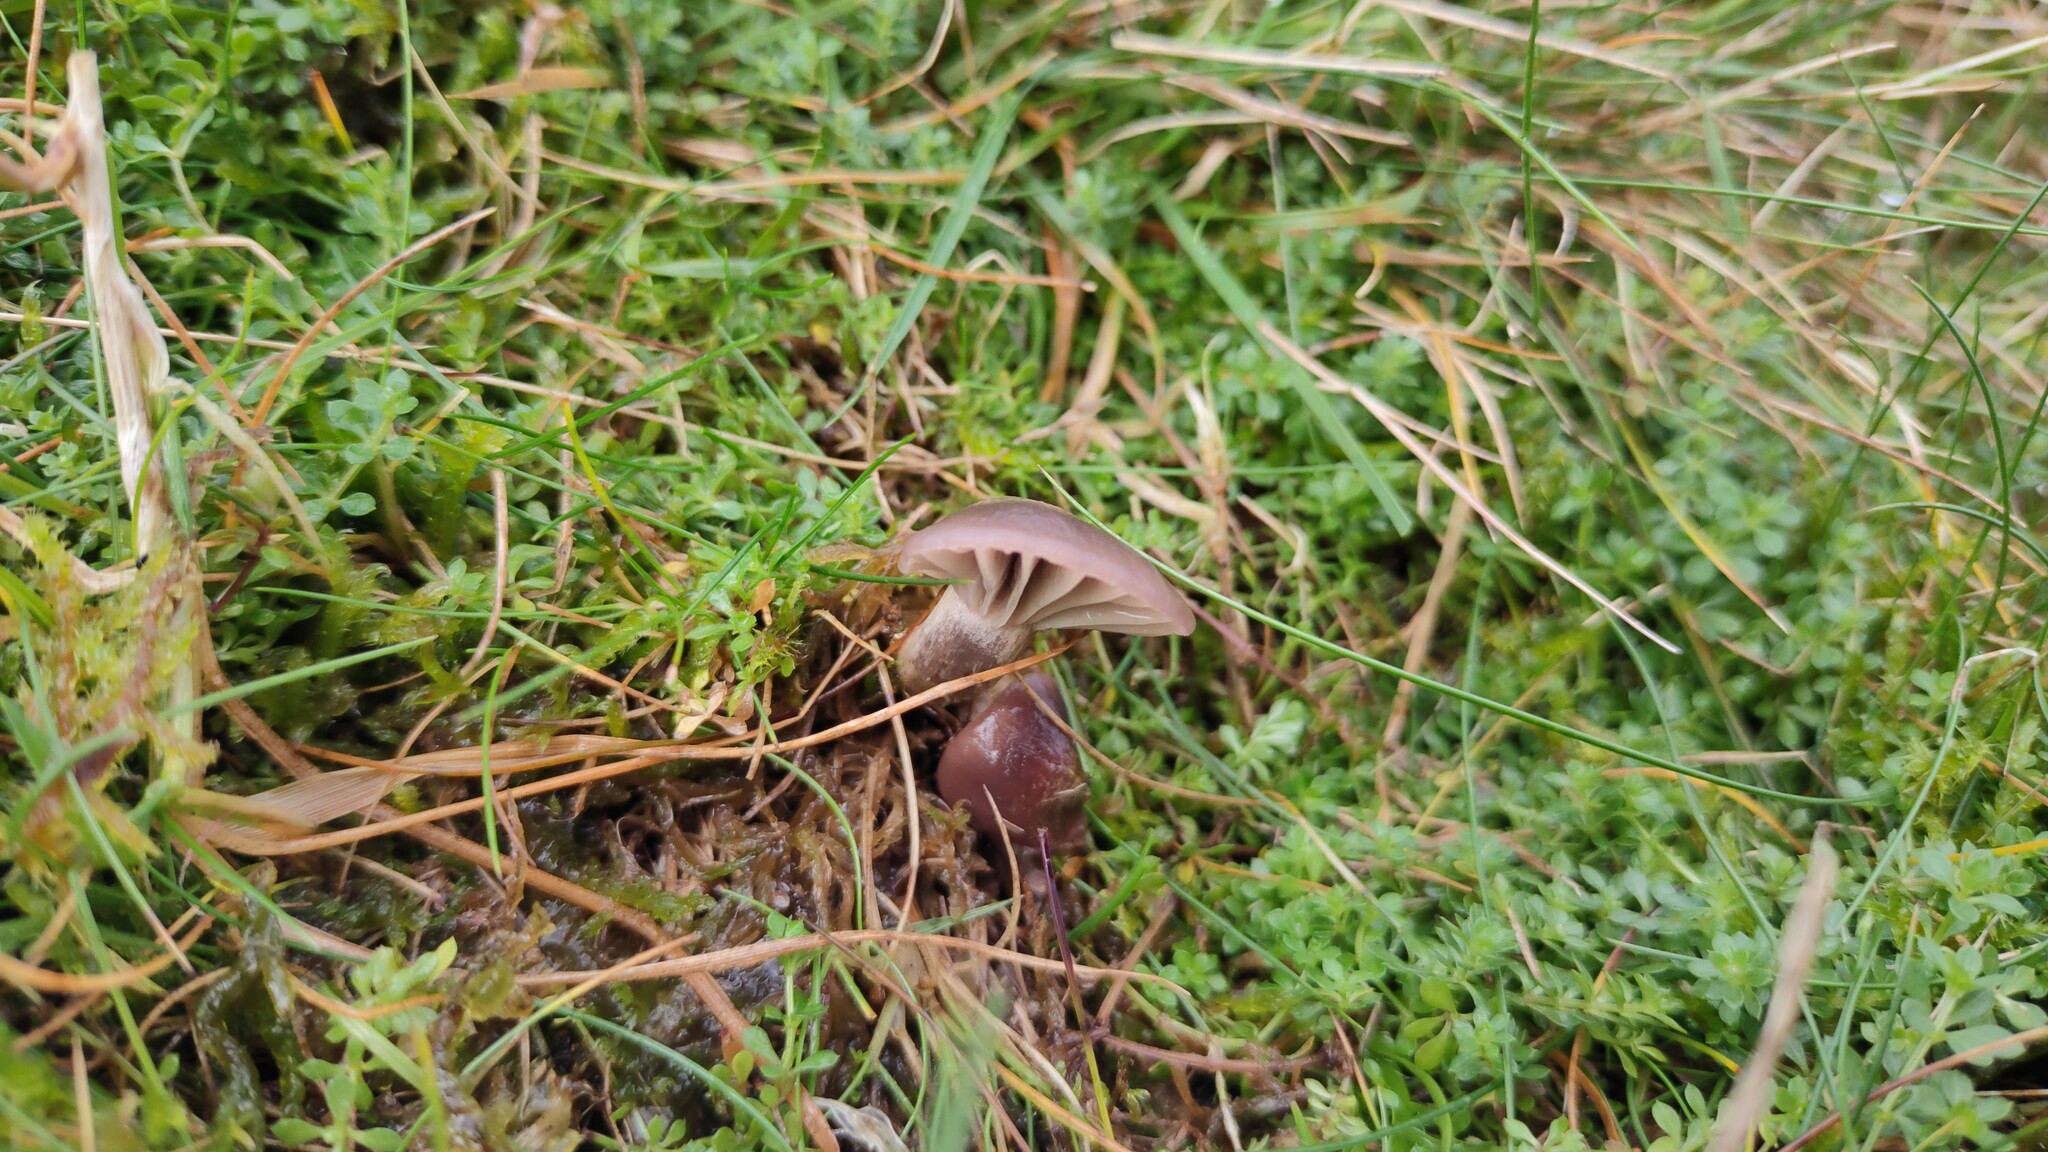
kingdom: Fungi
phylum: Basidiomycota
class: Agaricomycetes
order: Agaricales
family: Hygrophoraceae
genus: Cuphophyllus
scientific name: Cuphophyllus flavipes
